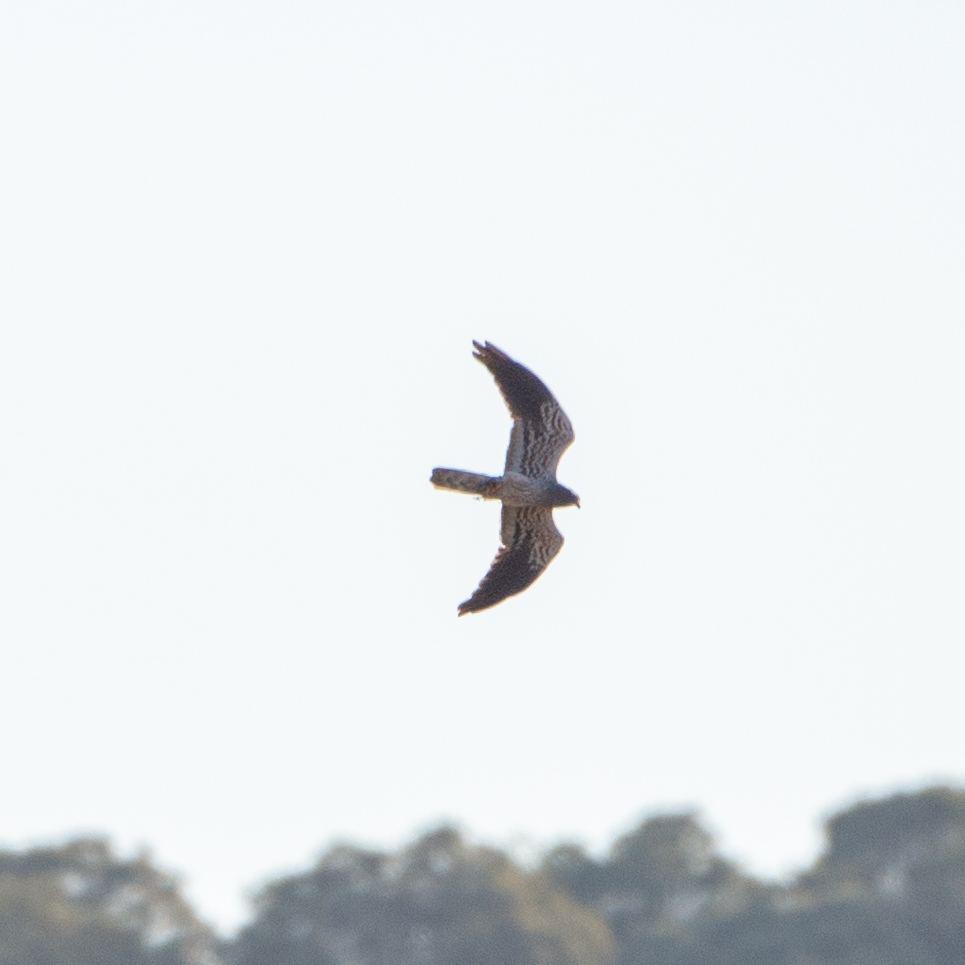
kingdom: Animalia
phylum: Chordata
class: Aves
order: Accipitriformes
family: Accipitridae
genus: Circus
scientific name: Circus pygargus
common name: Montagu's harrier
